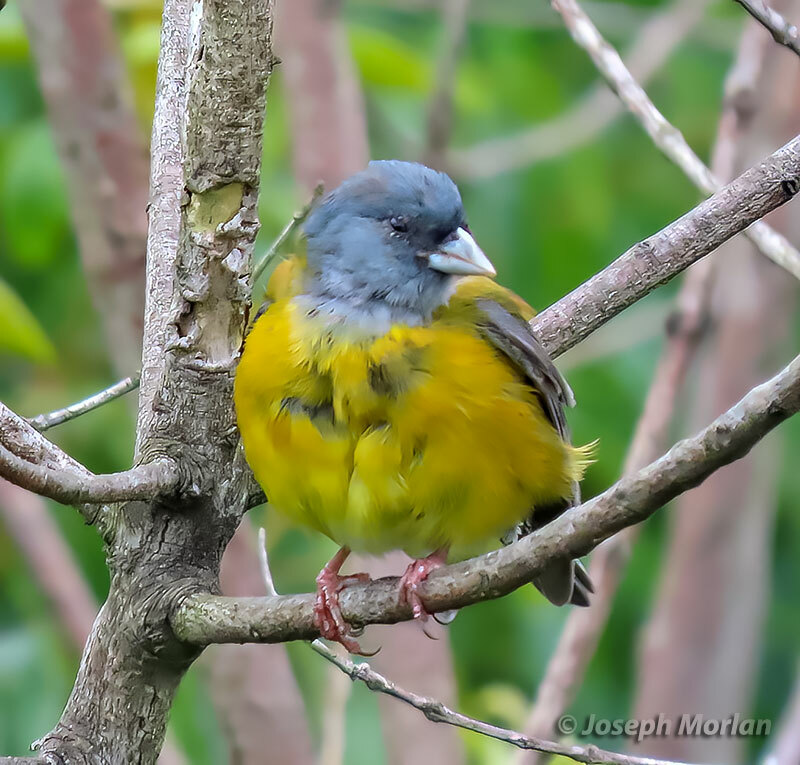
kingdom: Animalia
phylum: Chordata
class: Aves
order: Passeriformes
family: Thraupidae
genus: Phrygilus
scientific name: Phrygilus patagonicus
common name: Patagonian sierra finch
